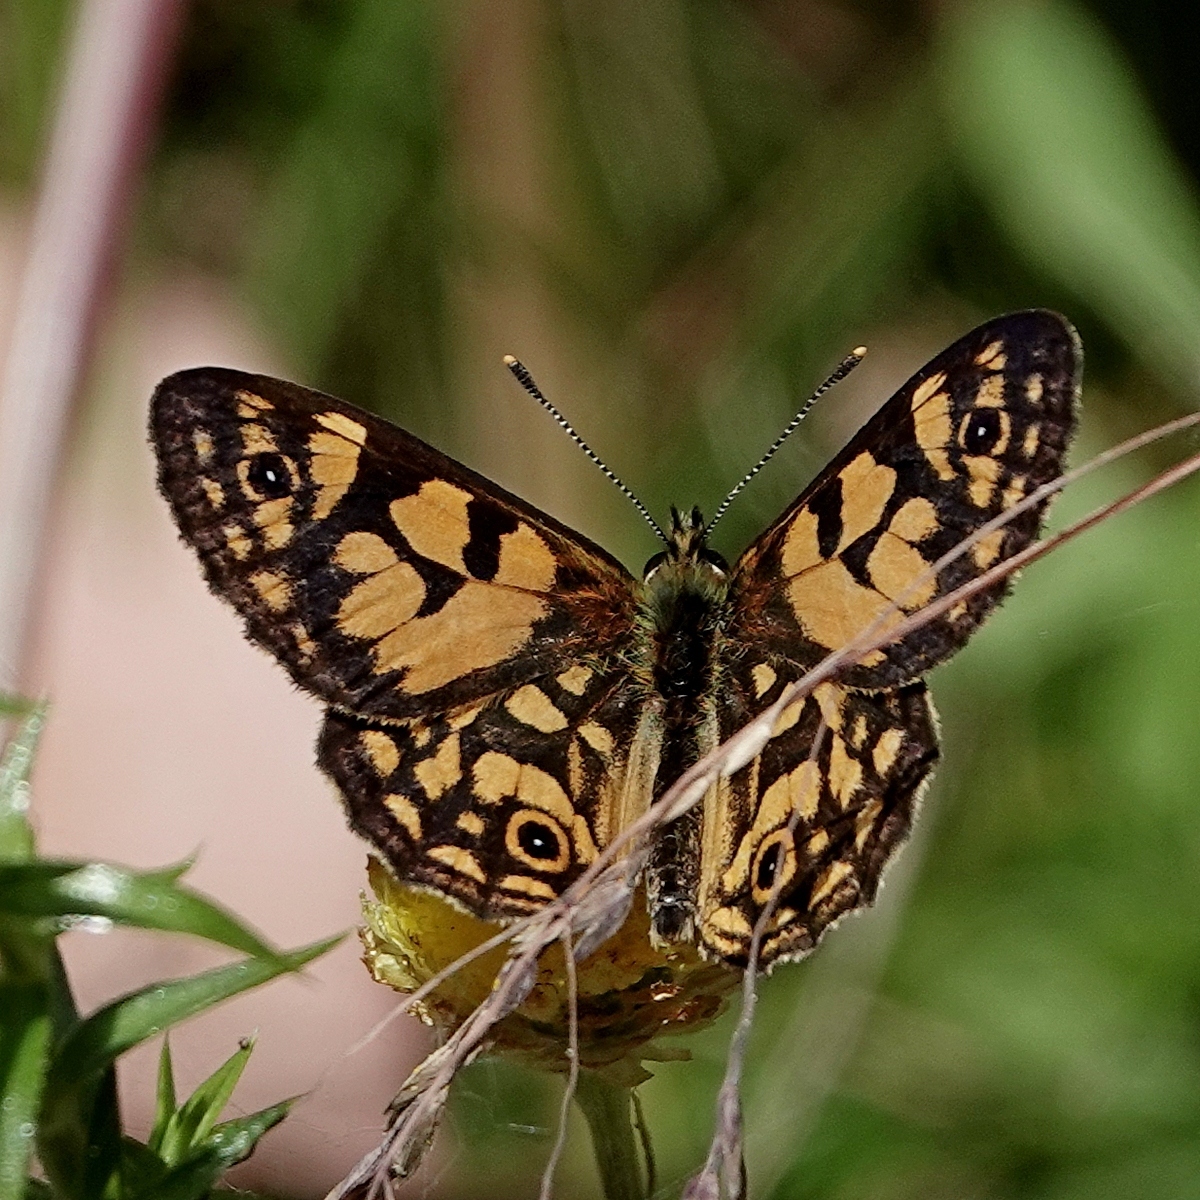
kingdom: Animalia
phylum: Arthropoda
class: Insecta
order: Lepidoptera
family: Nymphalidae
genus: Oreixenica
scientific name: Oreixenica lathoniella
